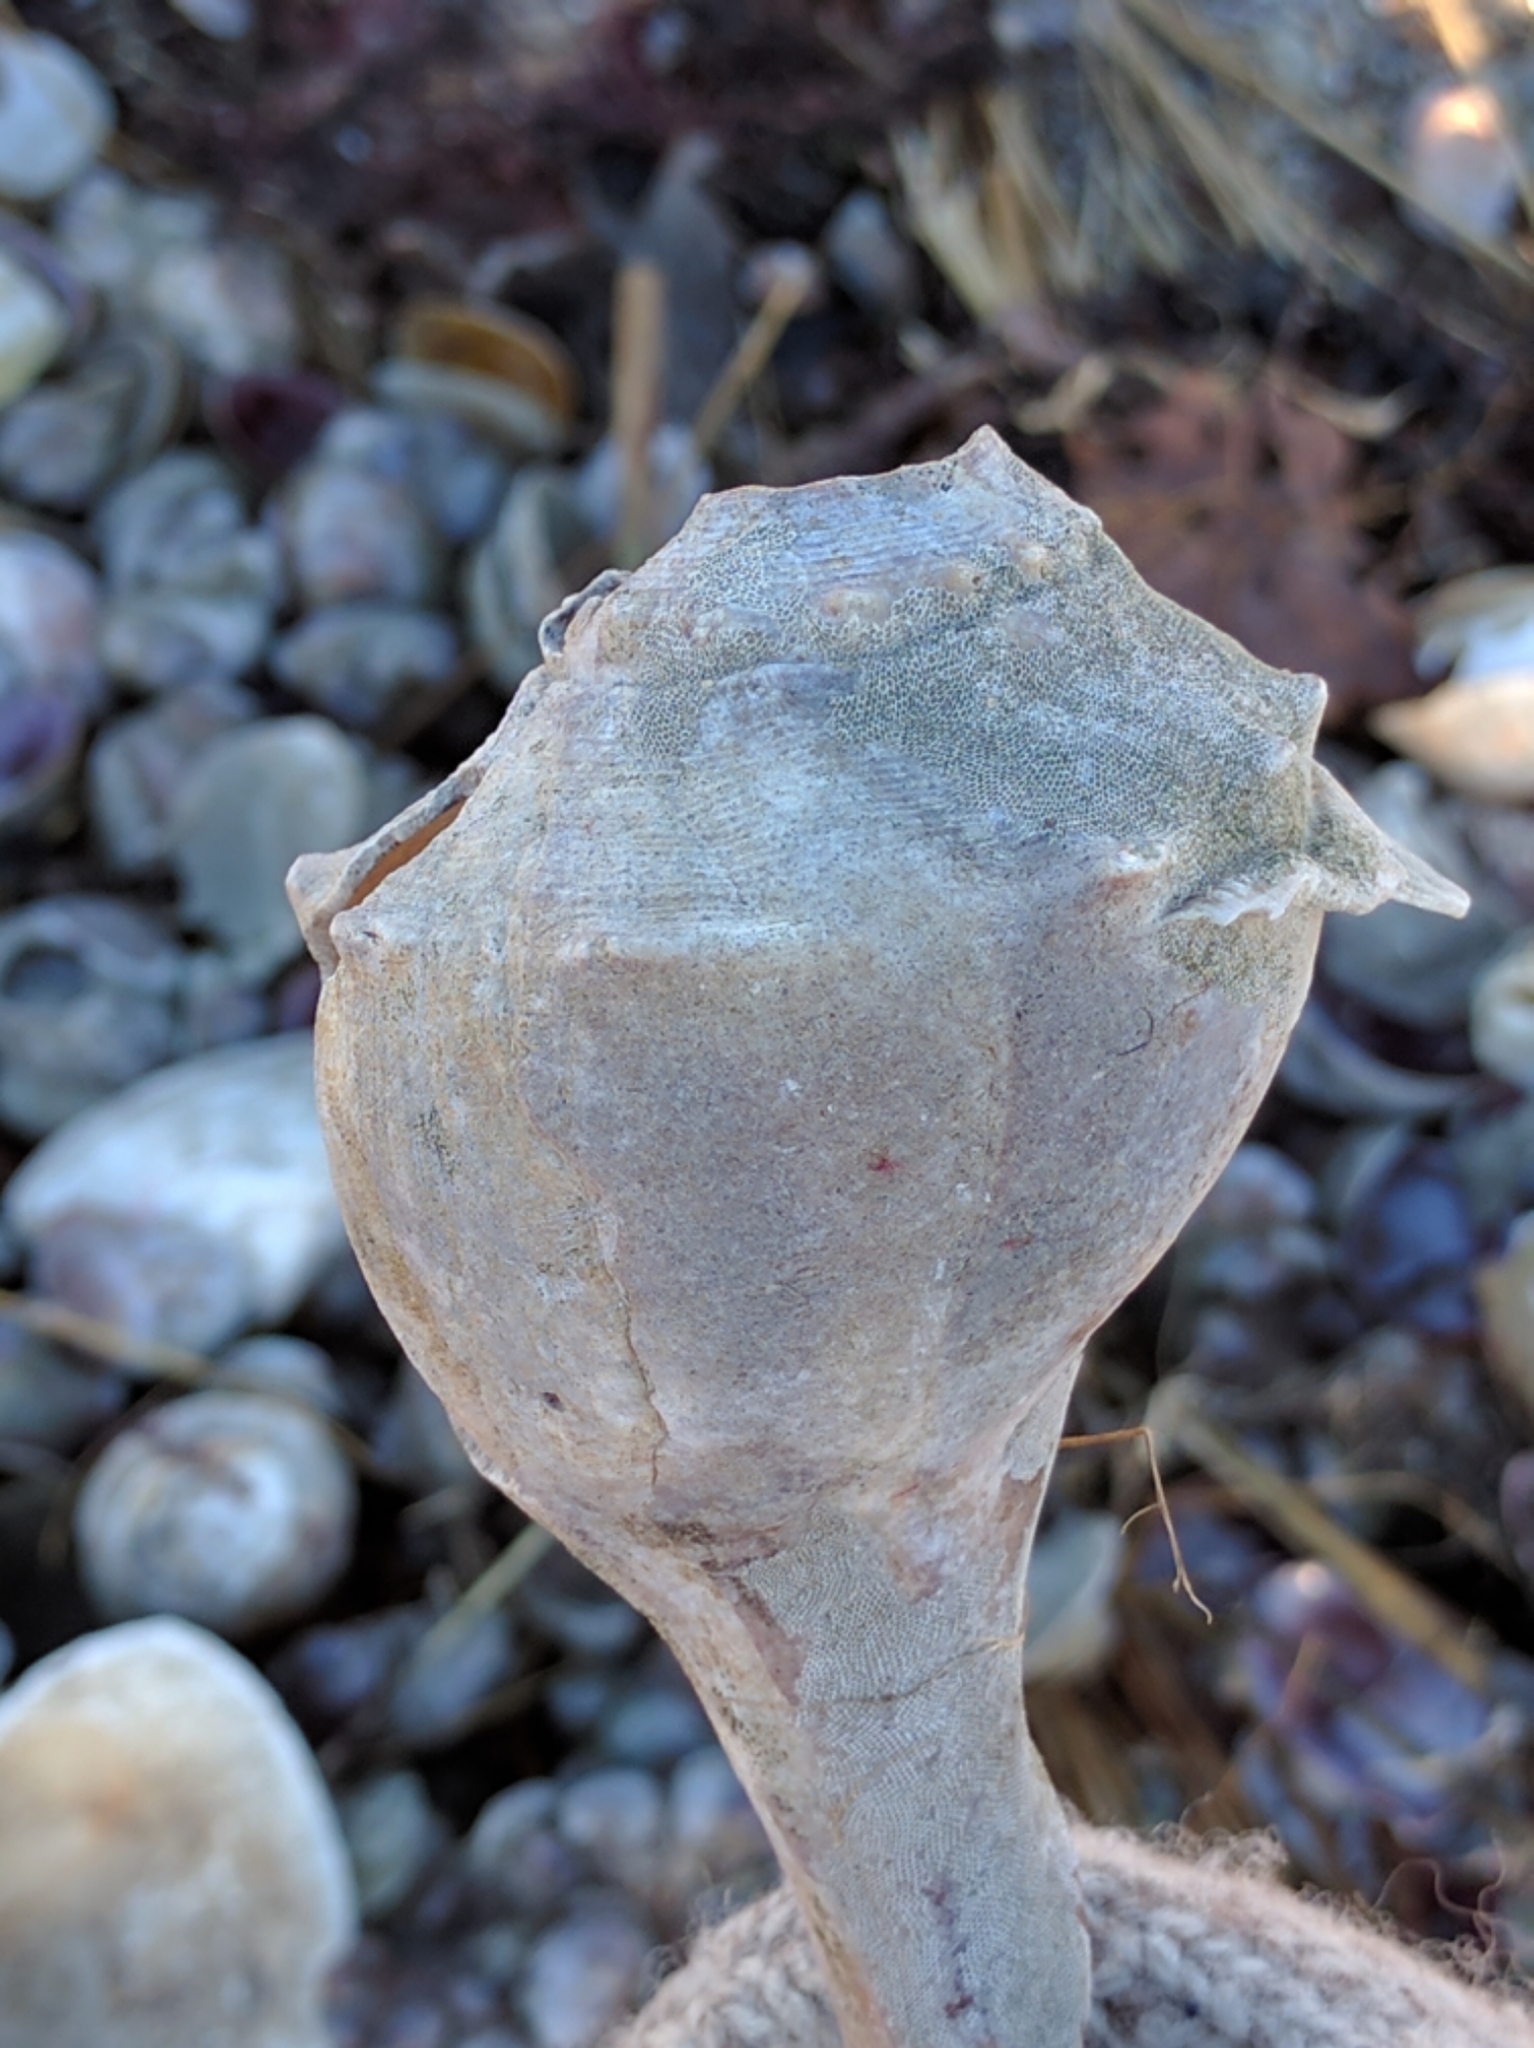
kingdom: Animalia
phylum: Mollusca
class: Gastropoda
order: Neogastropoda
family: Busyconidae
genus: Busycon
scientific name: Busycon carica
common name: Knobbed whelk
